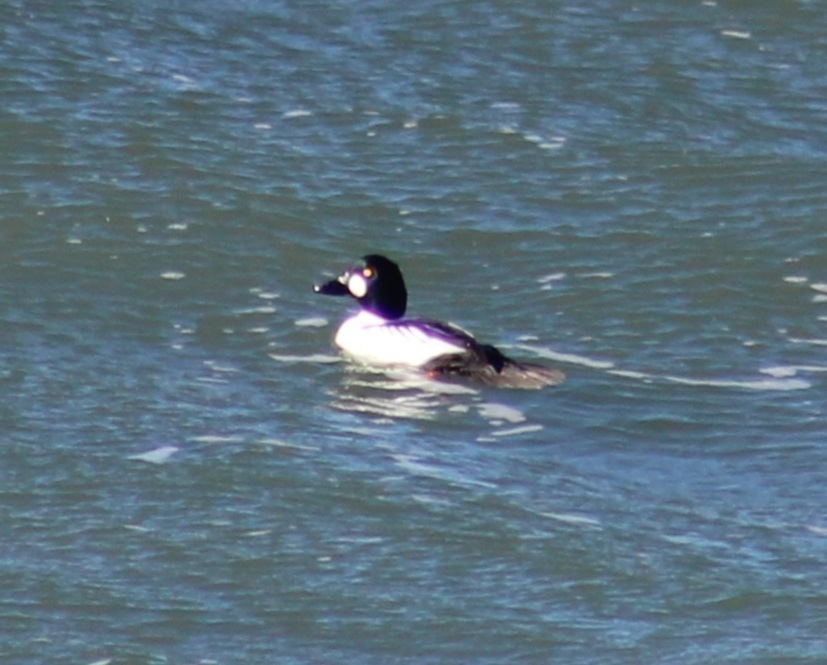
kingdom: Animalia
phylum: Chordata
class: Aves
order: Anseriformes
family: Anatidae
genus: Bucephala
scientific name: Bucephala clangula
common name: Common goldeneye
